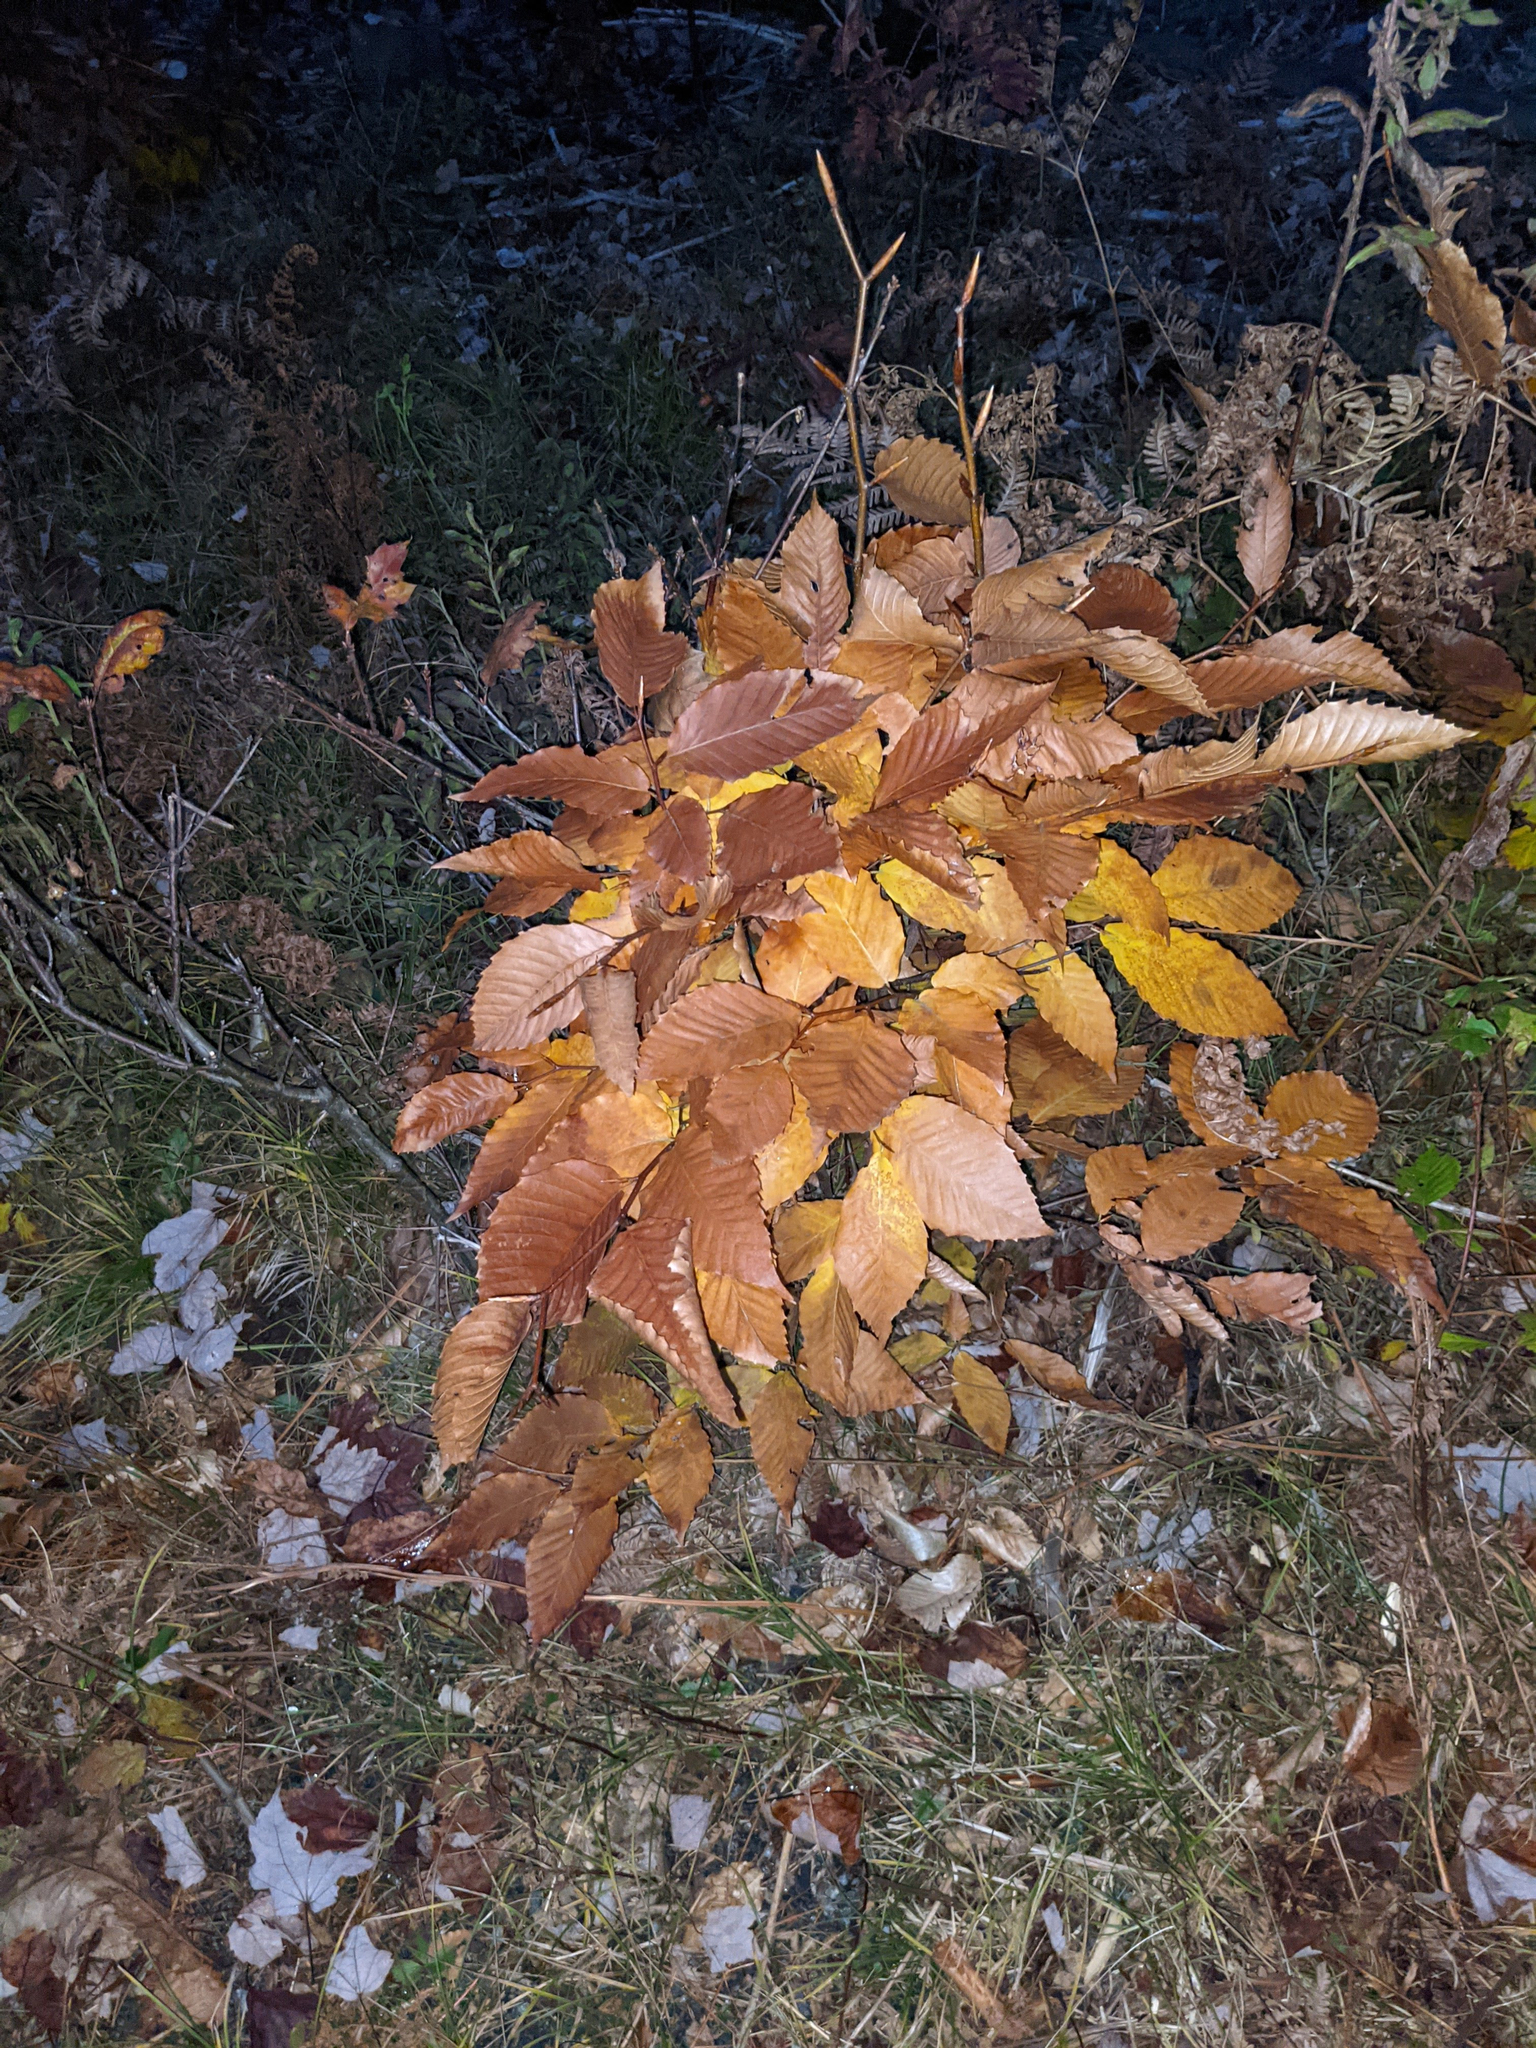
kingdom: Plantae
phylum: Tracheophyta
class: Magnoliopsida
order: Fagales
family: Fagaceae
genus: Fagus
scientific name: Fagus grandifolia
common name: American beech
